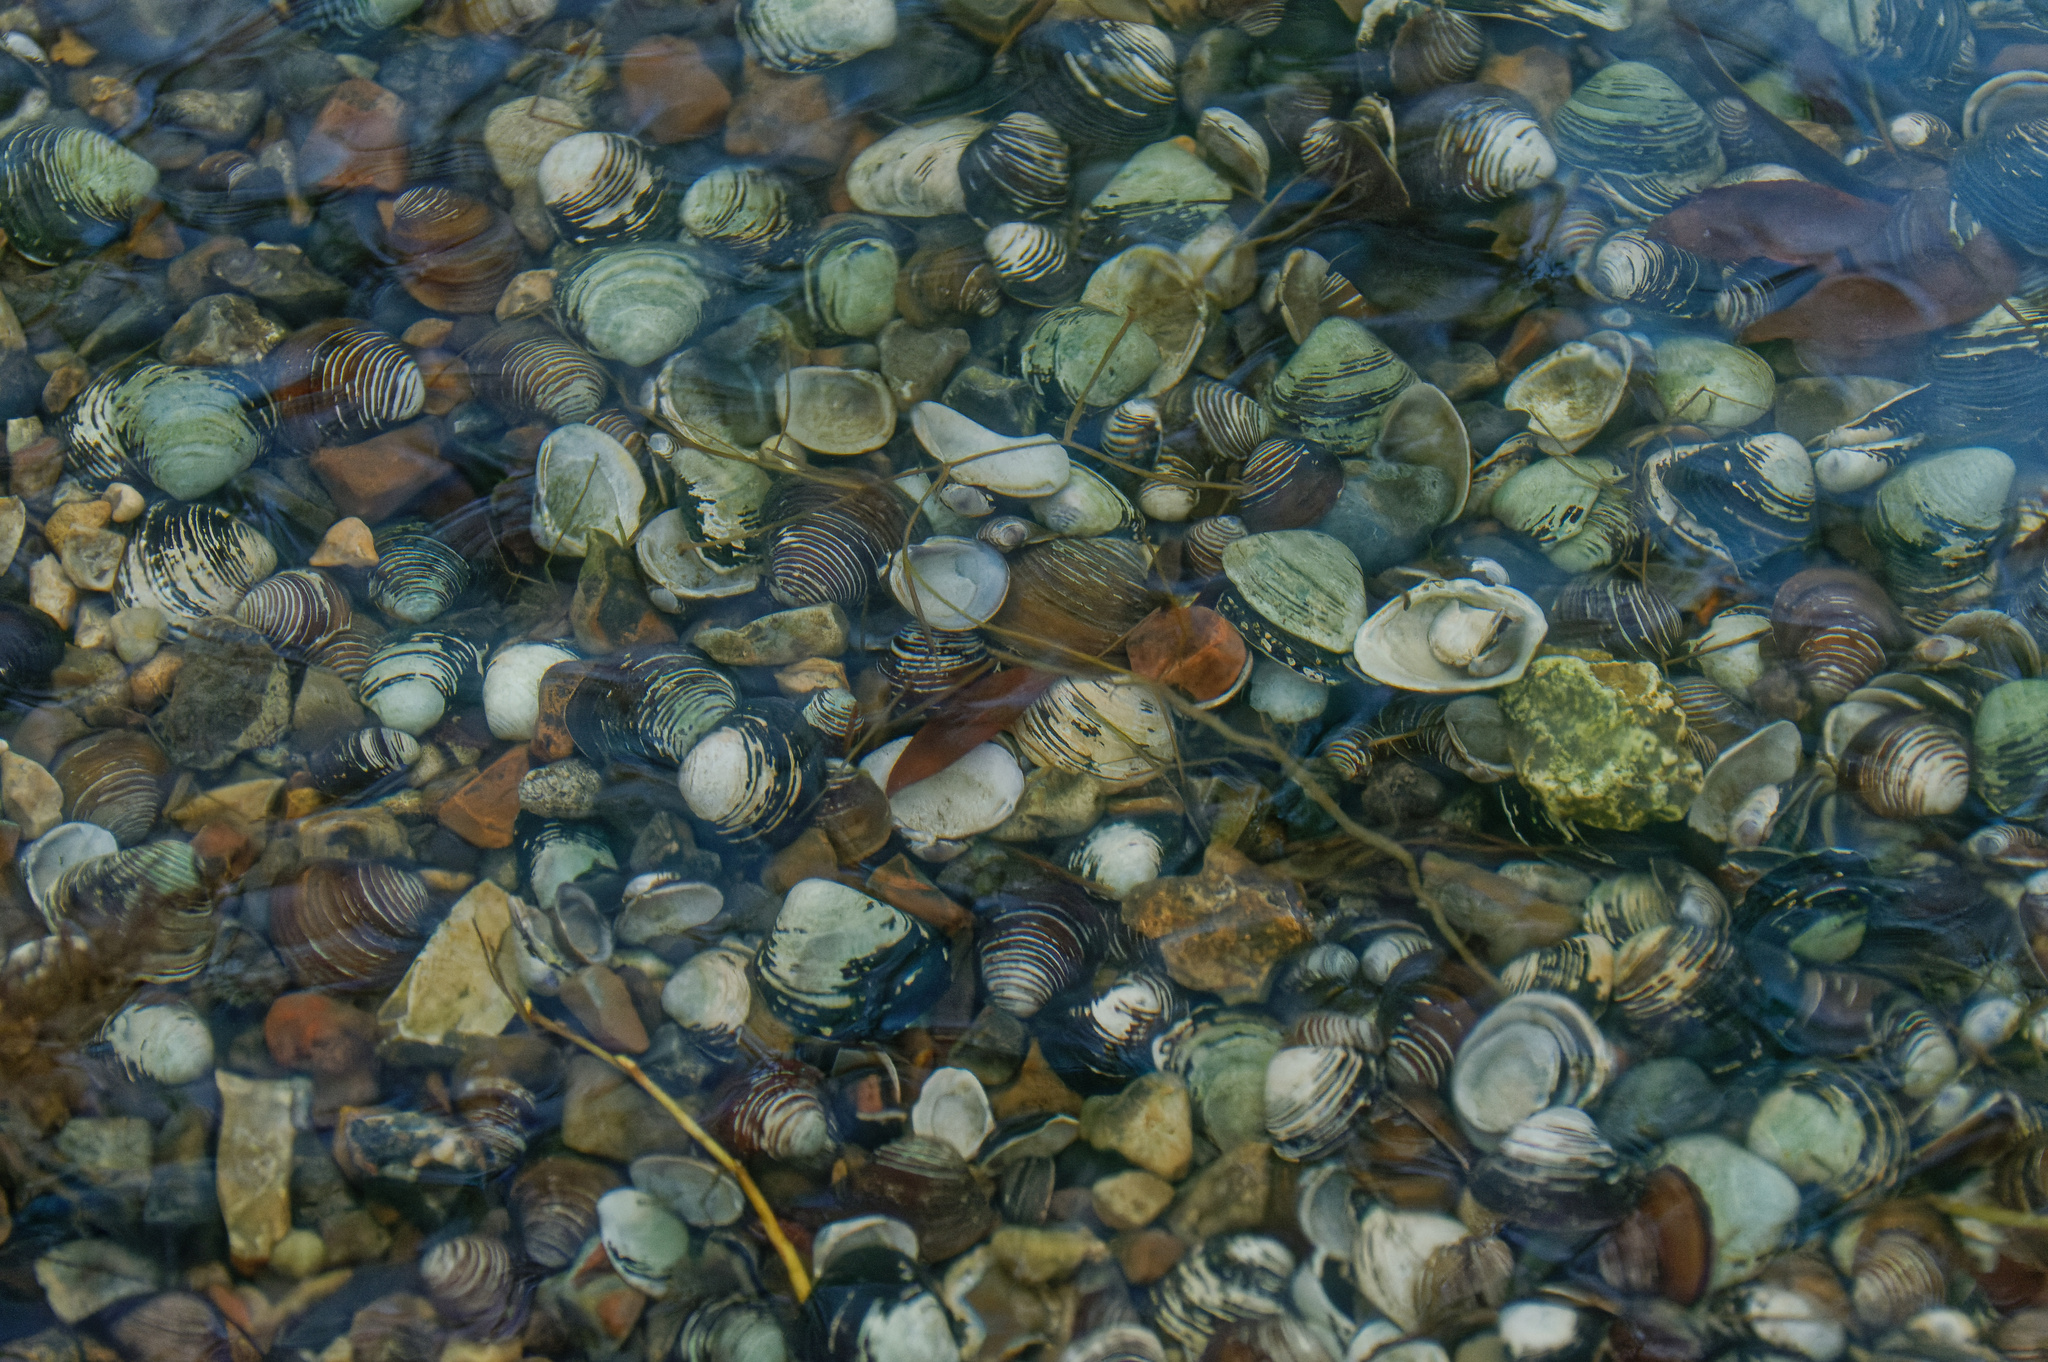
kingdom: Animalia
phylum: Mollusca
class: Bivalvia
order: Venerida
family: Cyrenidae
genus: Corbicula
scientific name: Corbicula fluminea
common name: Asian clam
